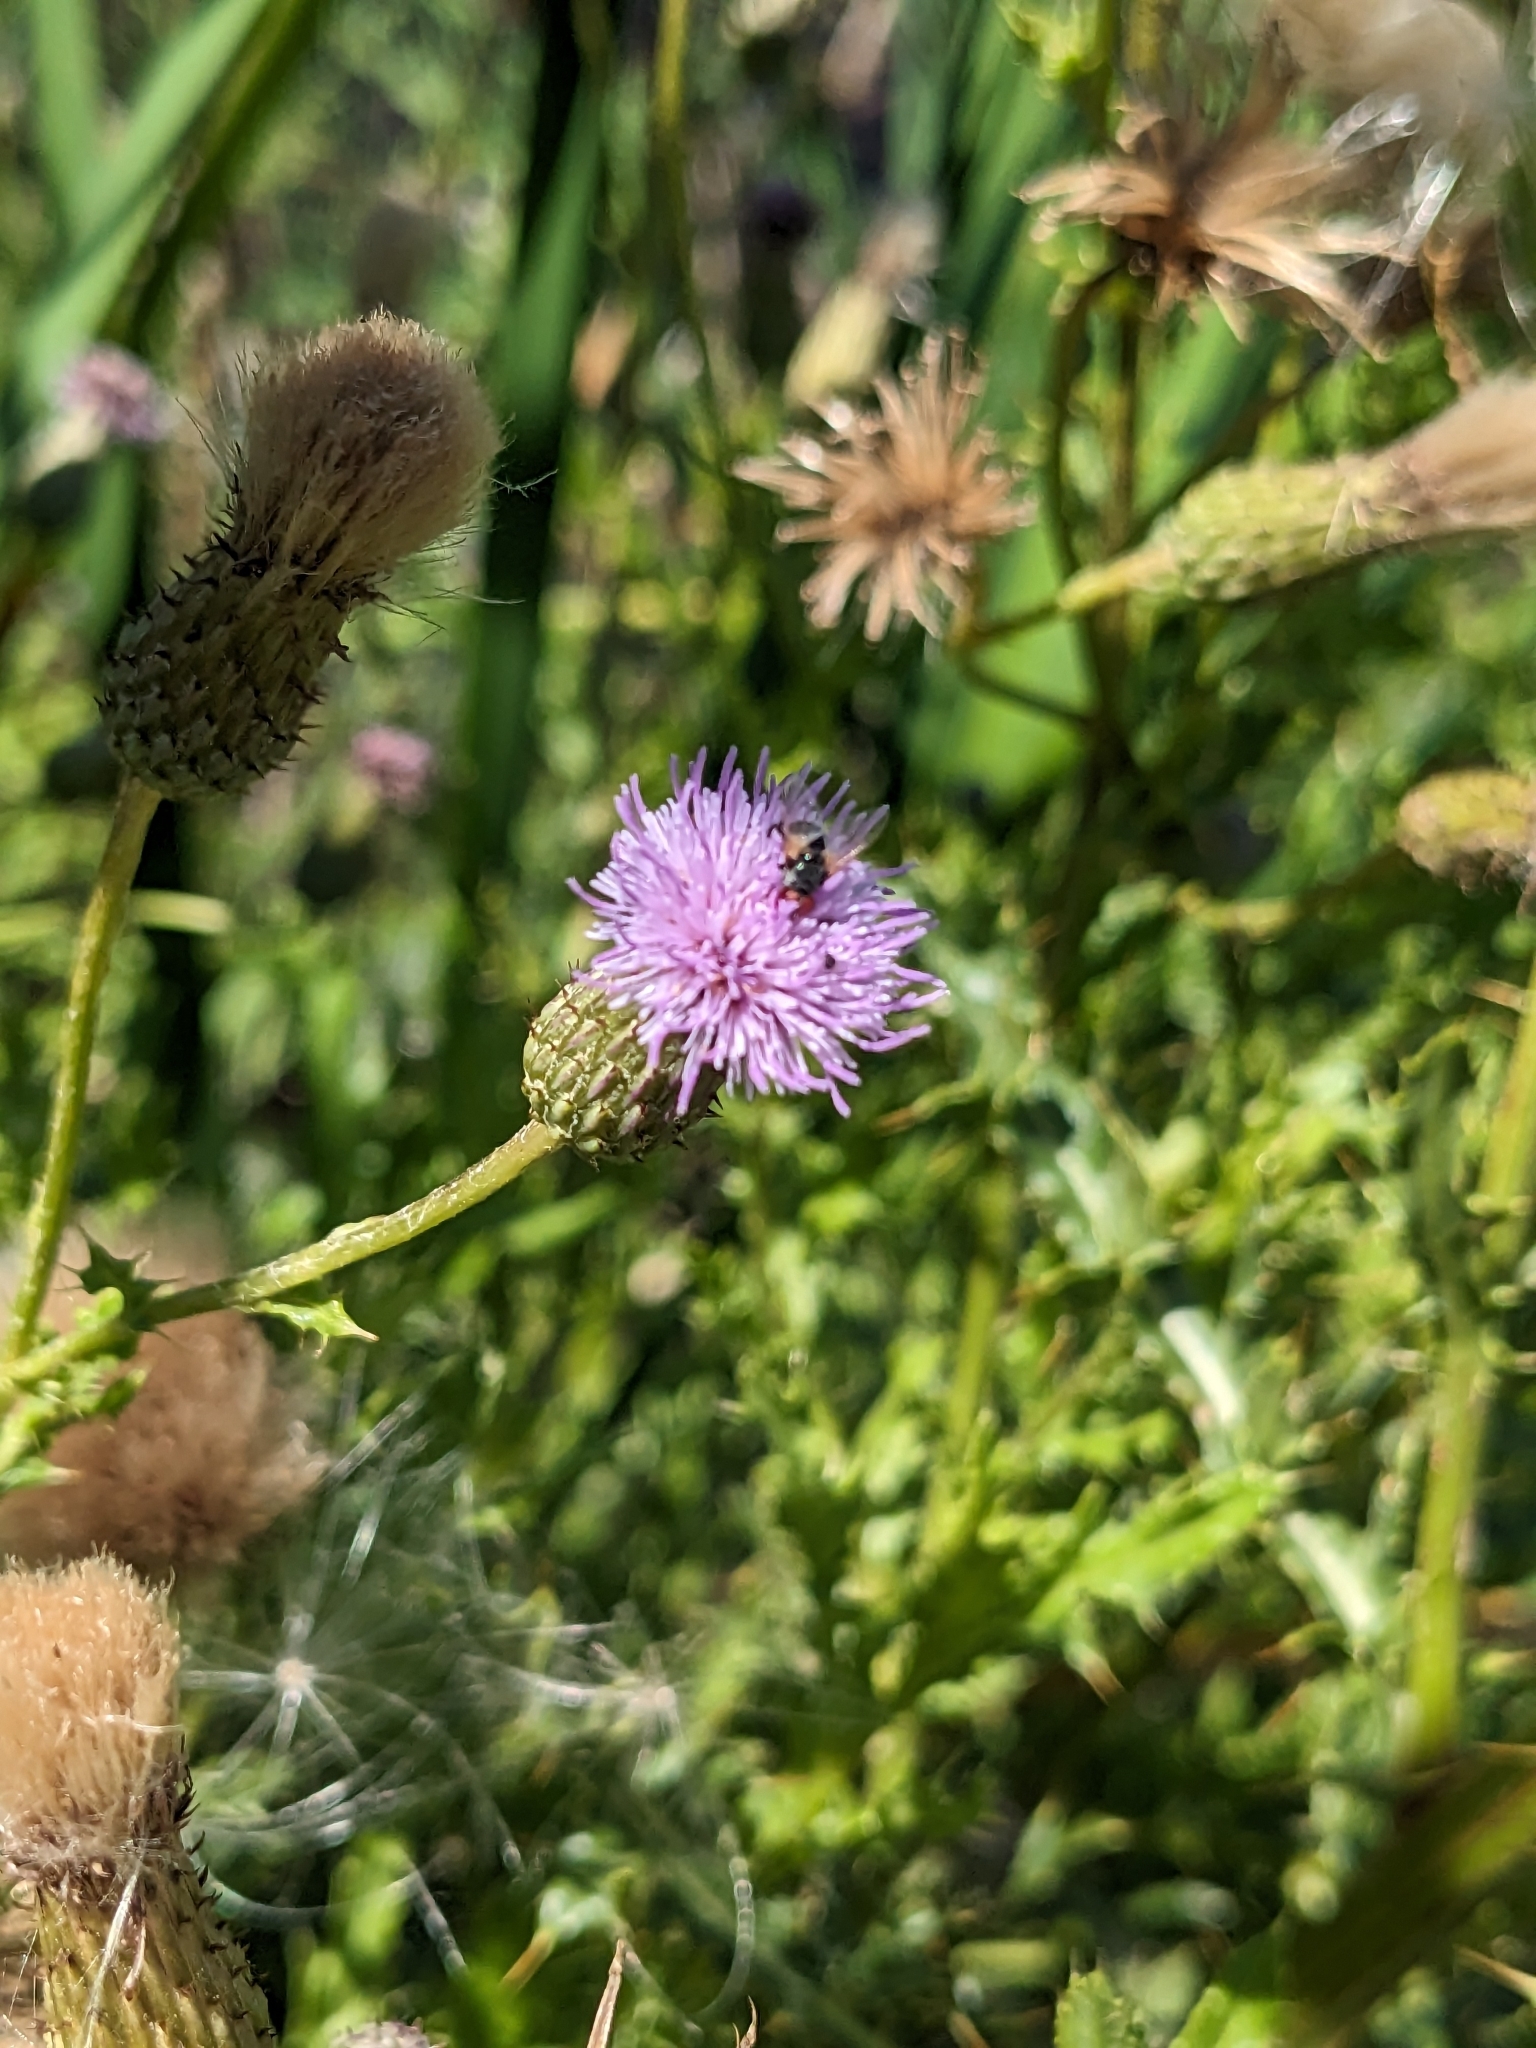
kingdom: Plantae
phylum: Tracheophyta
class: Magnoliopsida
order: Asterales
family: Asteraceae
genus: Cirsium
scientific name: Cirsium arvense
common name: Creeping thistle
